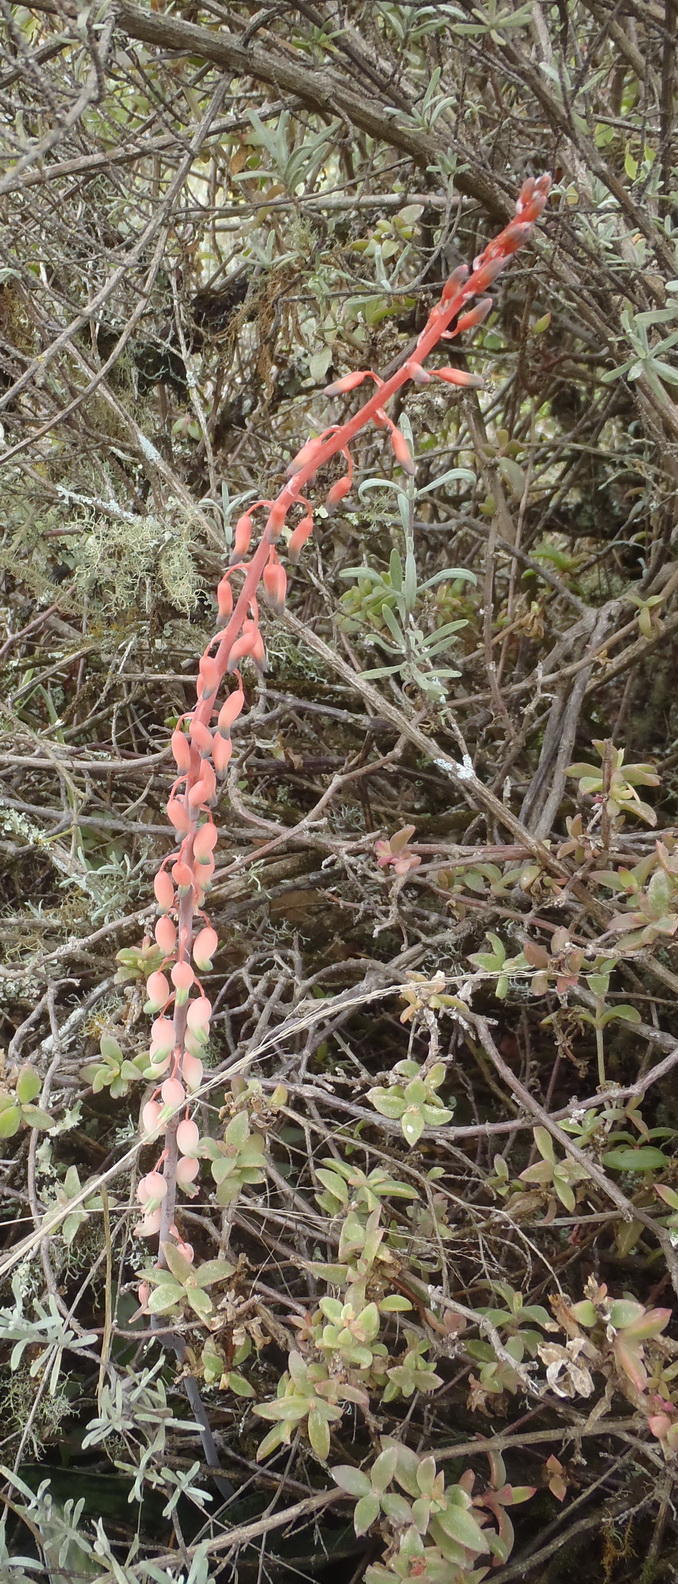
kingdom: Plantae
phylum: Tracheophyta
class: Liliopsida
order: Asparagales
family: Asphodelaceae
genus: Gasteria
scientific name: Gasteria obliqua
